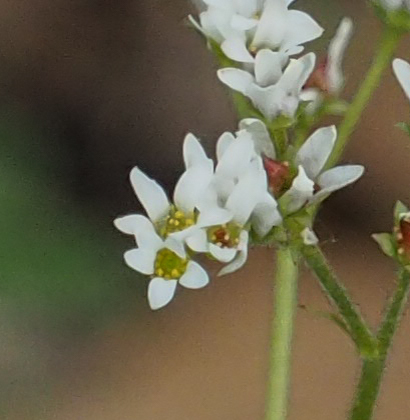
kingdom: Plantae
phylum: Tracheophyta
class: Magnoliopsida
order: Saxifragales
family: Saxifragaceae
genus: Micranthes
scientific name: Micranthes virginiensis
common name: Early saxifrage
